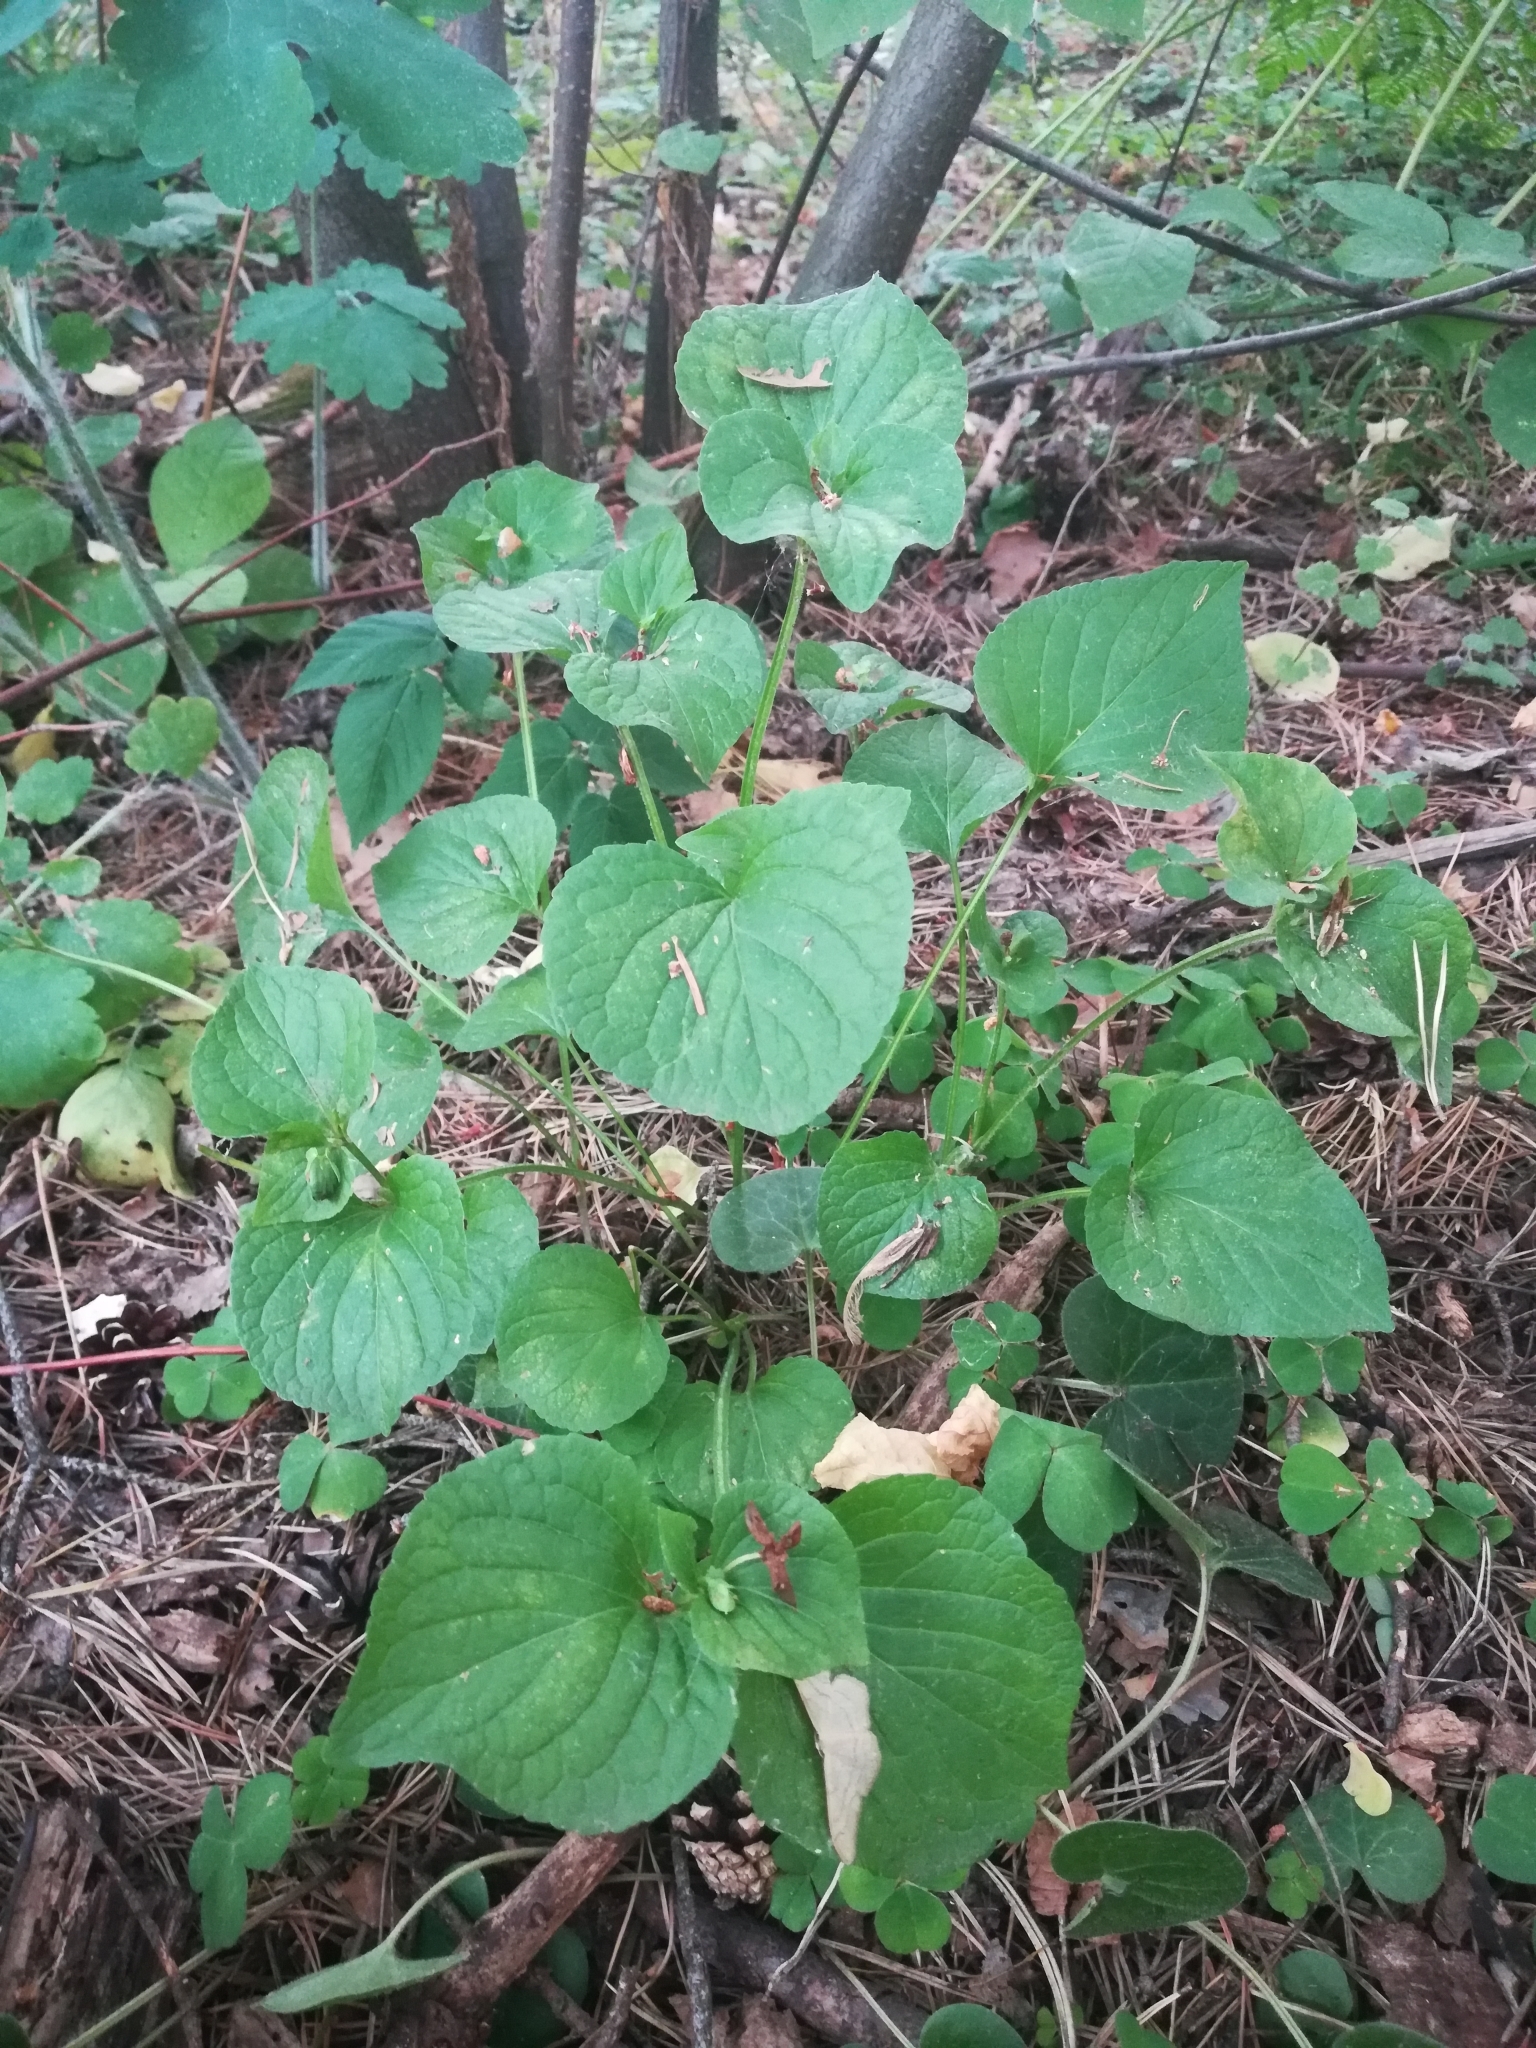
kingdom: Plantae
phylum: Tracheophyta
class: Magnoliopsida
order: Malpighiales
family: Violaceae
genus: Viola
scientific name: Viola mirabilis
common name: Wonder violet
